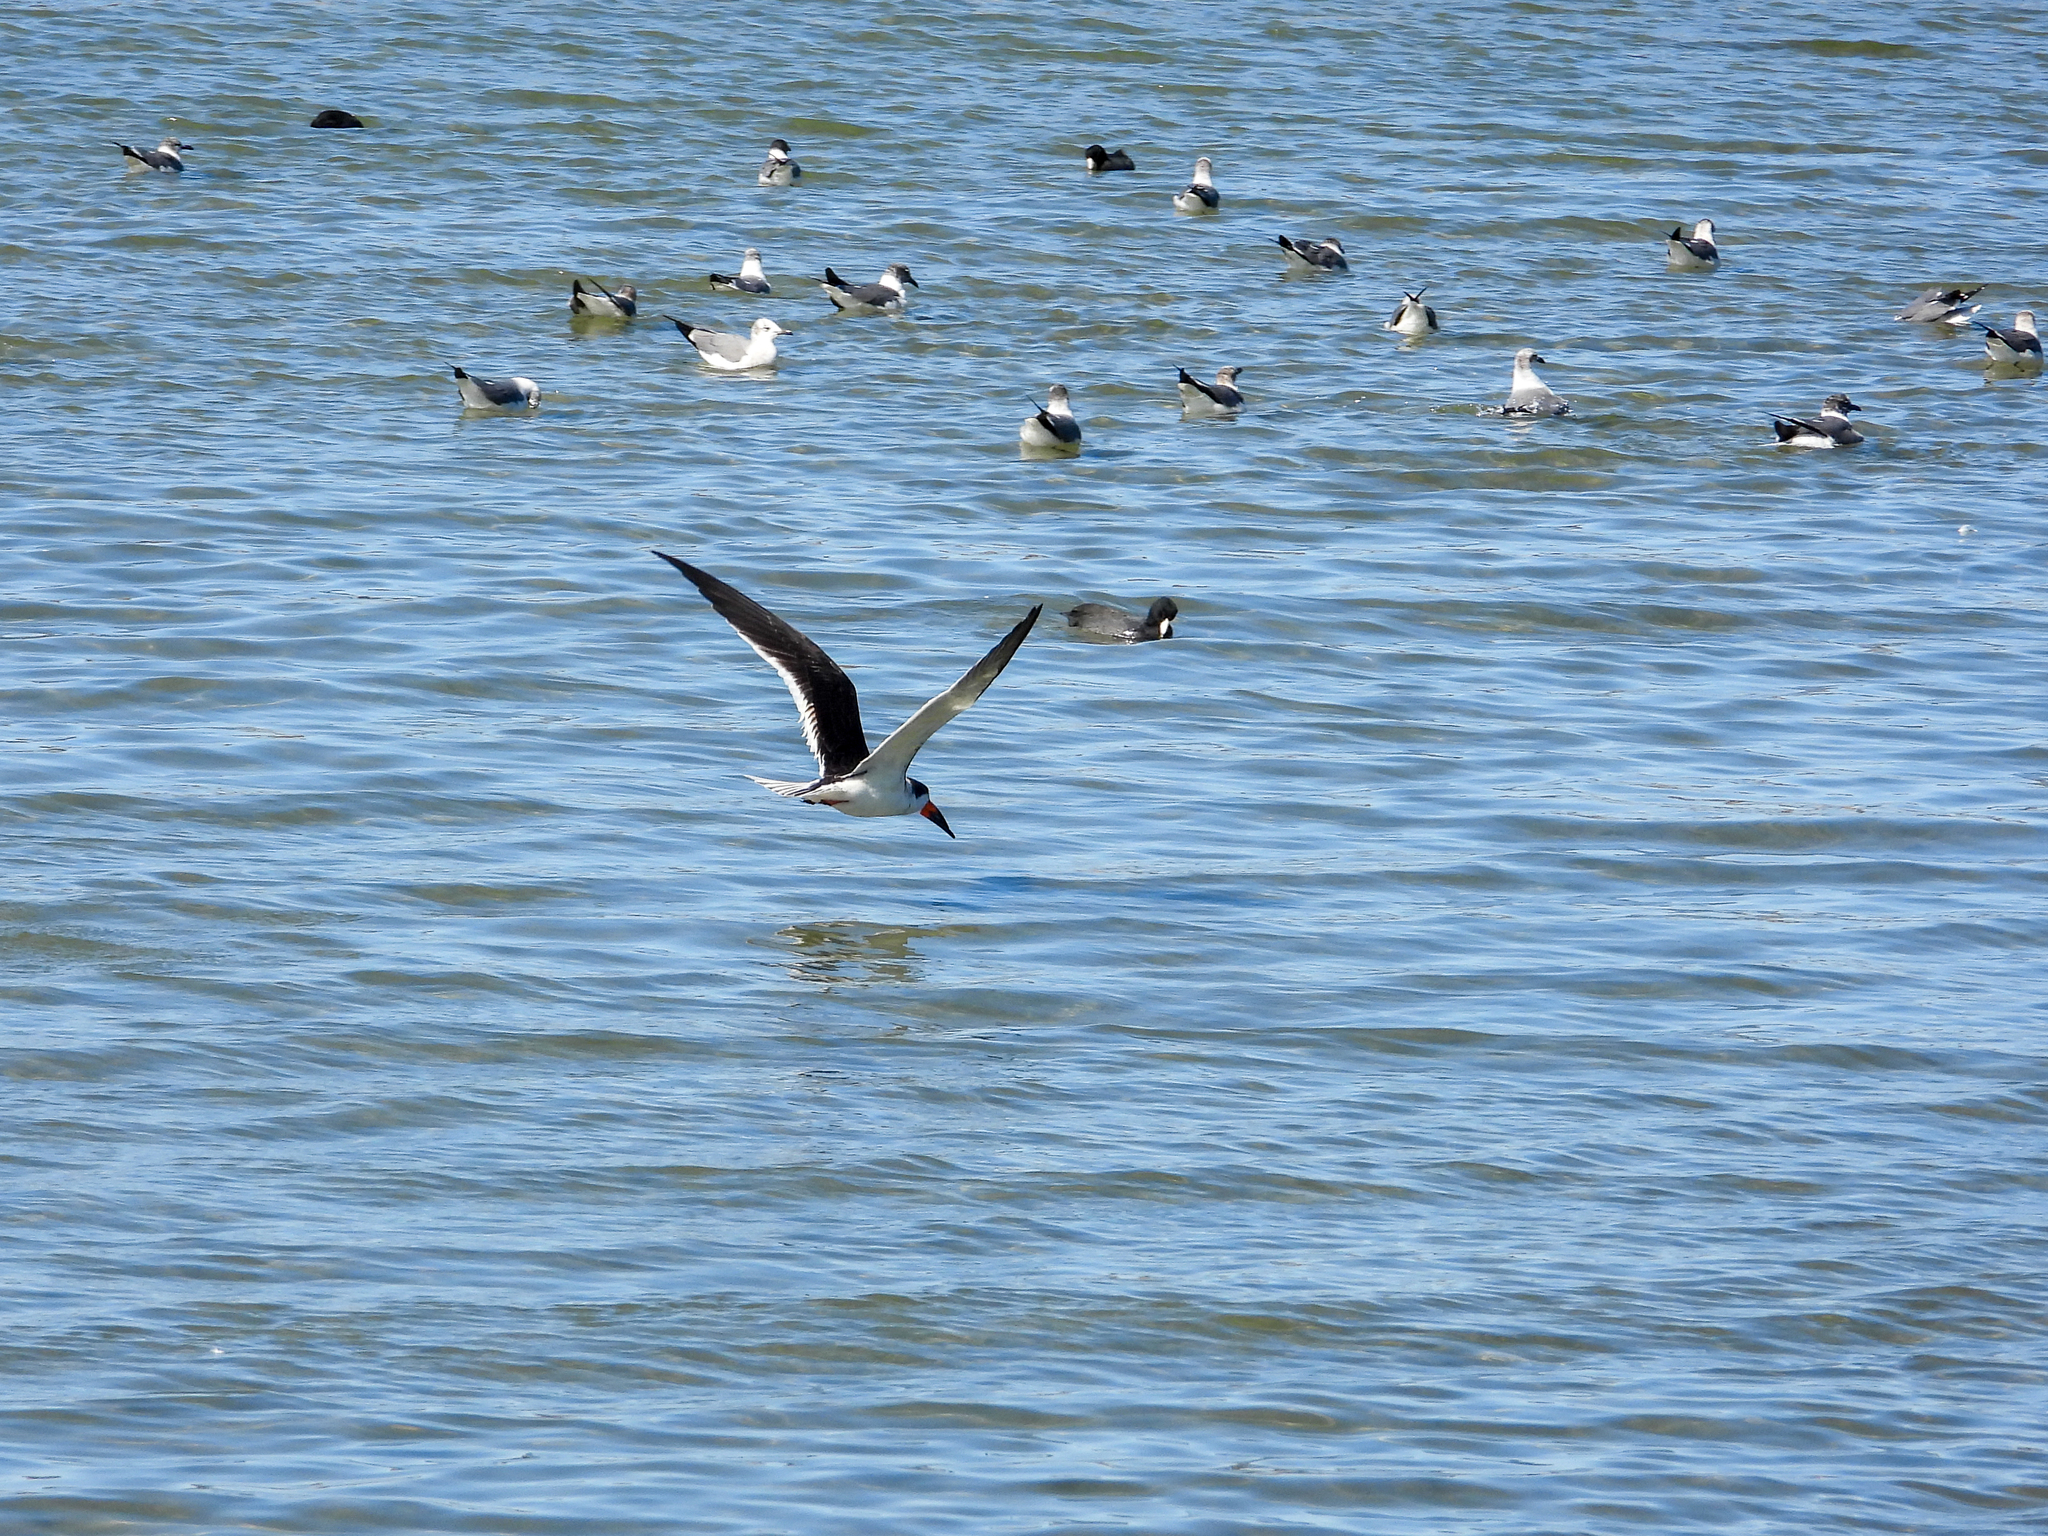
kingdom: Animalia
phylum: Chordata
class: Aves
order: Charadriiformes
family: Laridae
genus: Rynchops
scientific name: Rynchops niger
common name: Black skimmer
